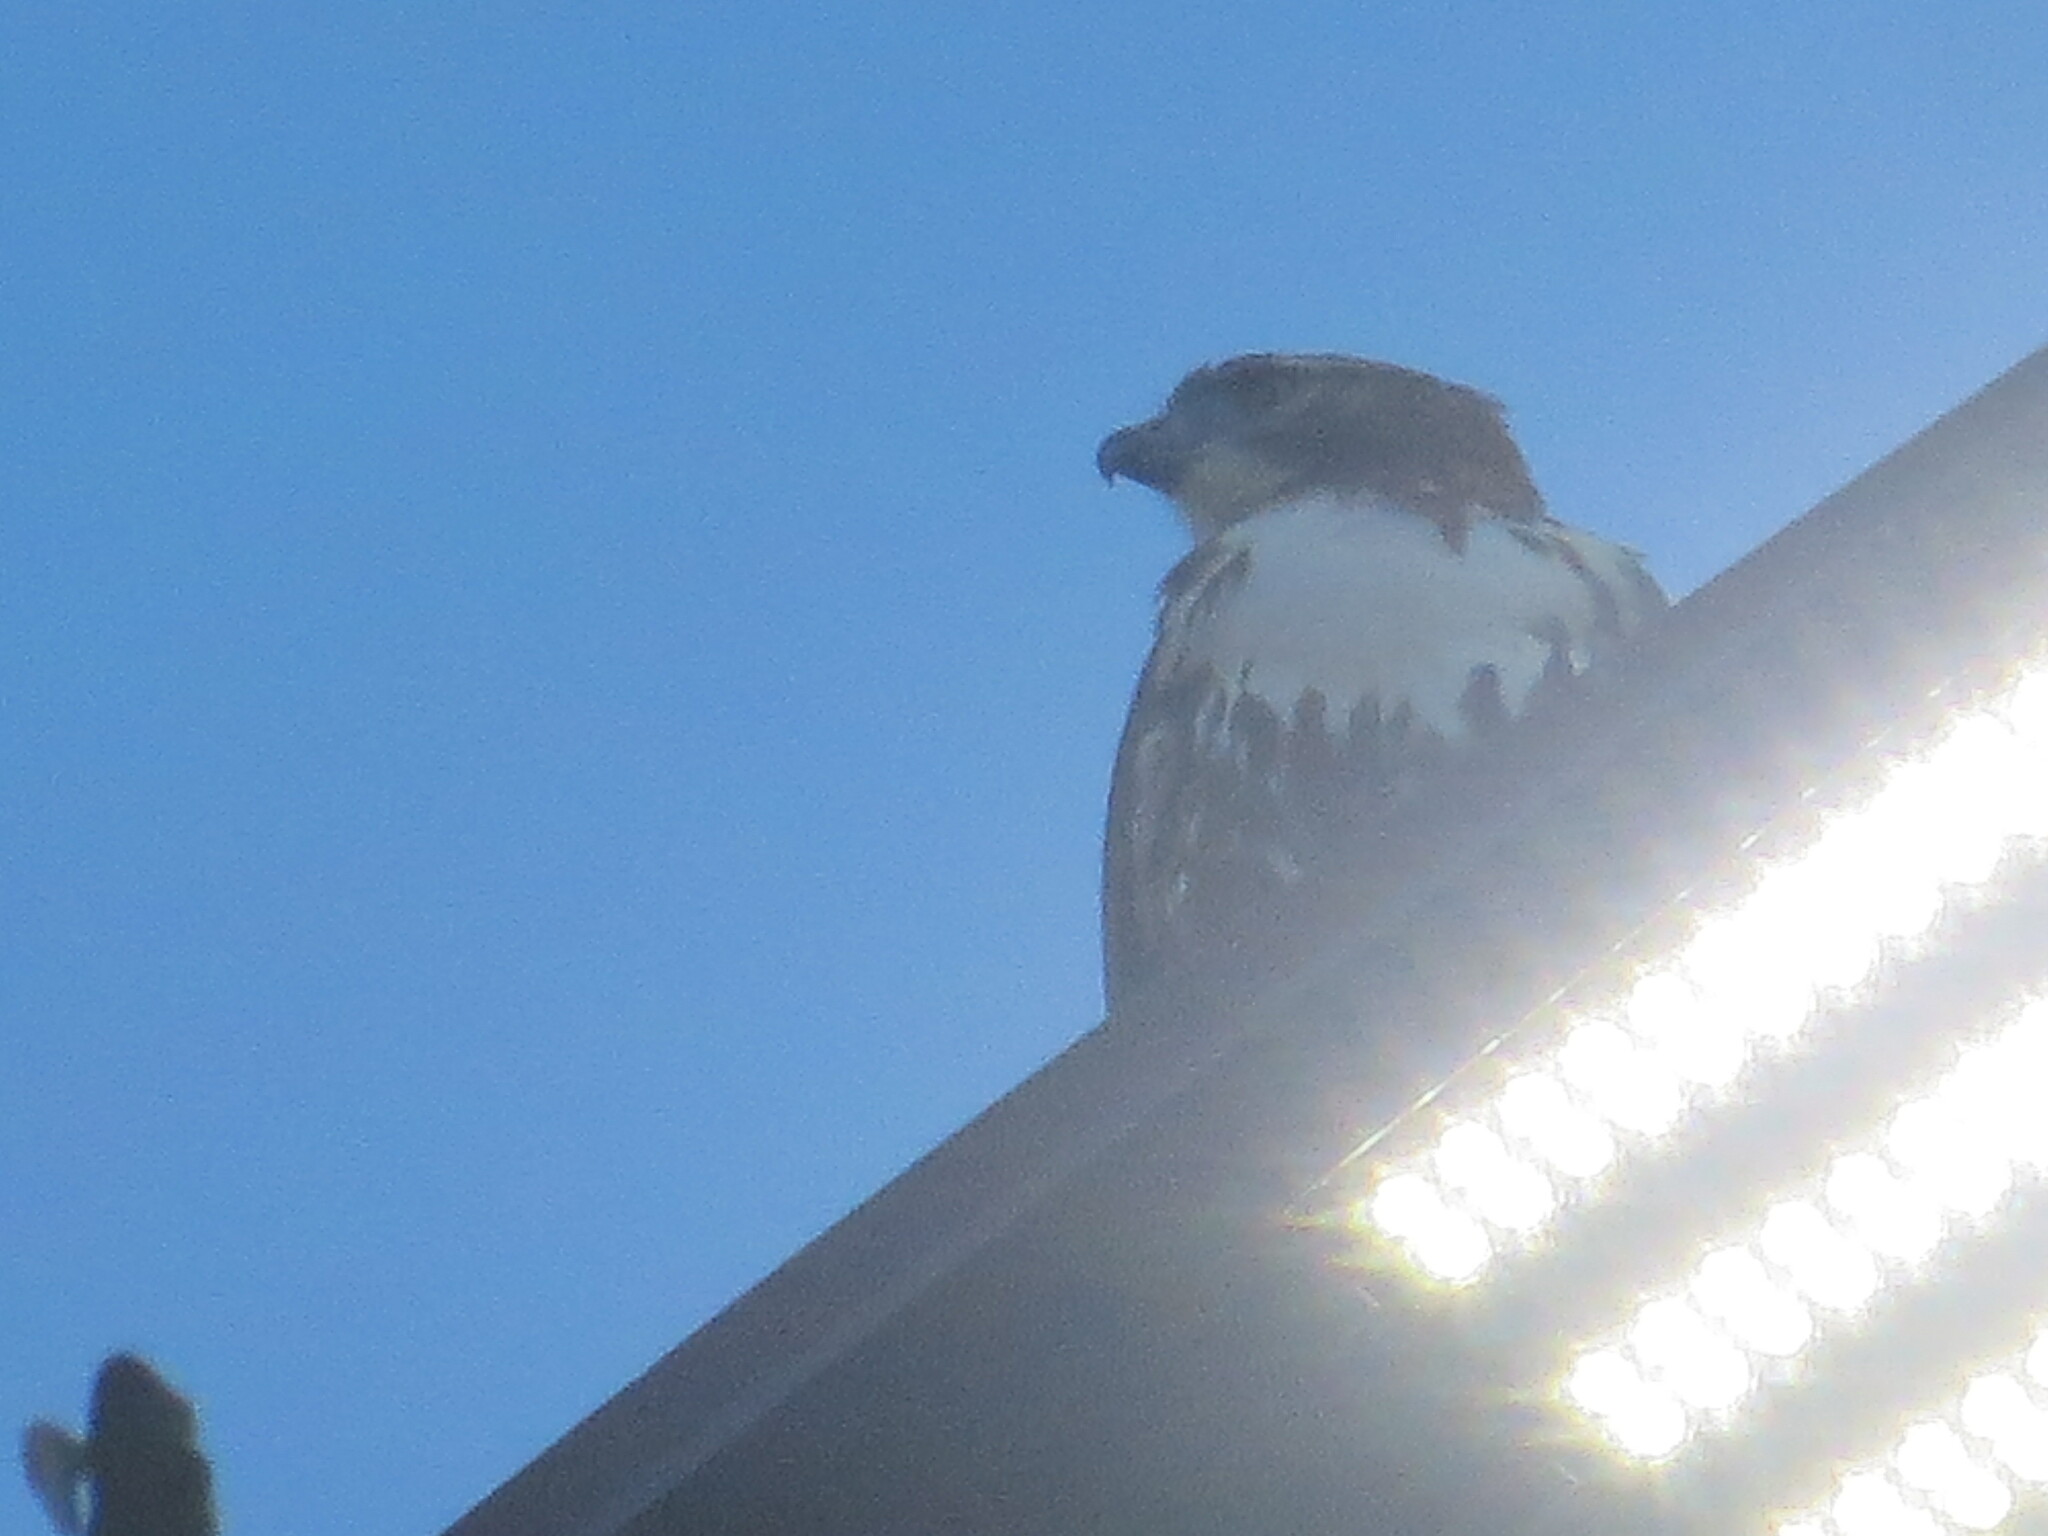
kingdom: Animalia
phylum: Chordata
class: Aves
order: Accipitriformes
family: Accipitridae
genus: Buteo
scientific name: Buteo jamaicensis
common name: Red-tailed hawk
